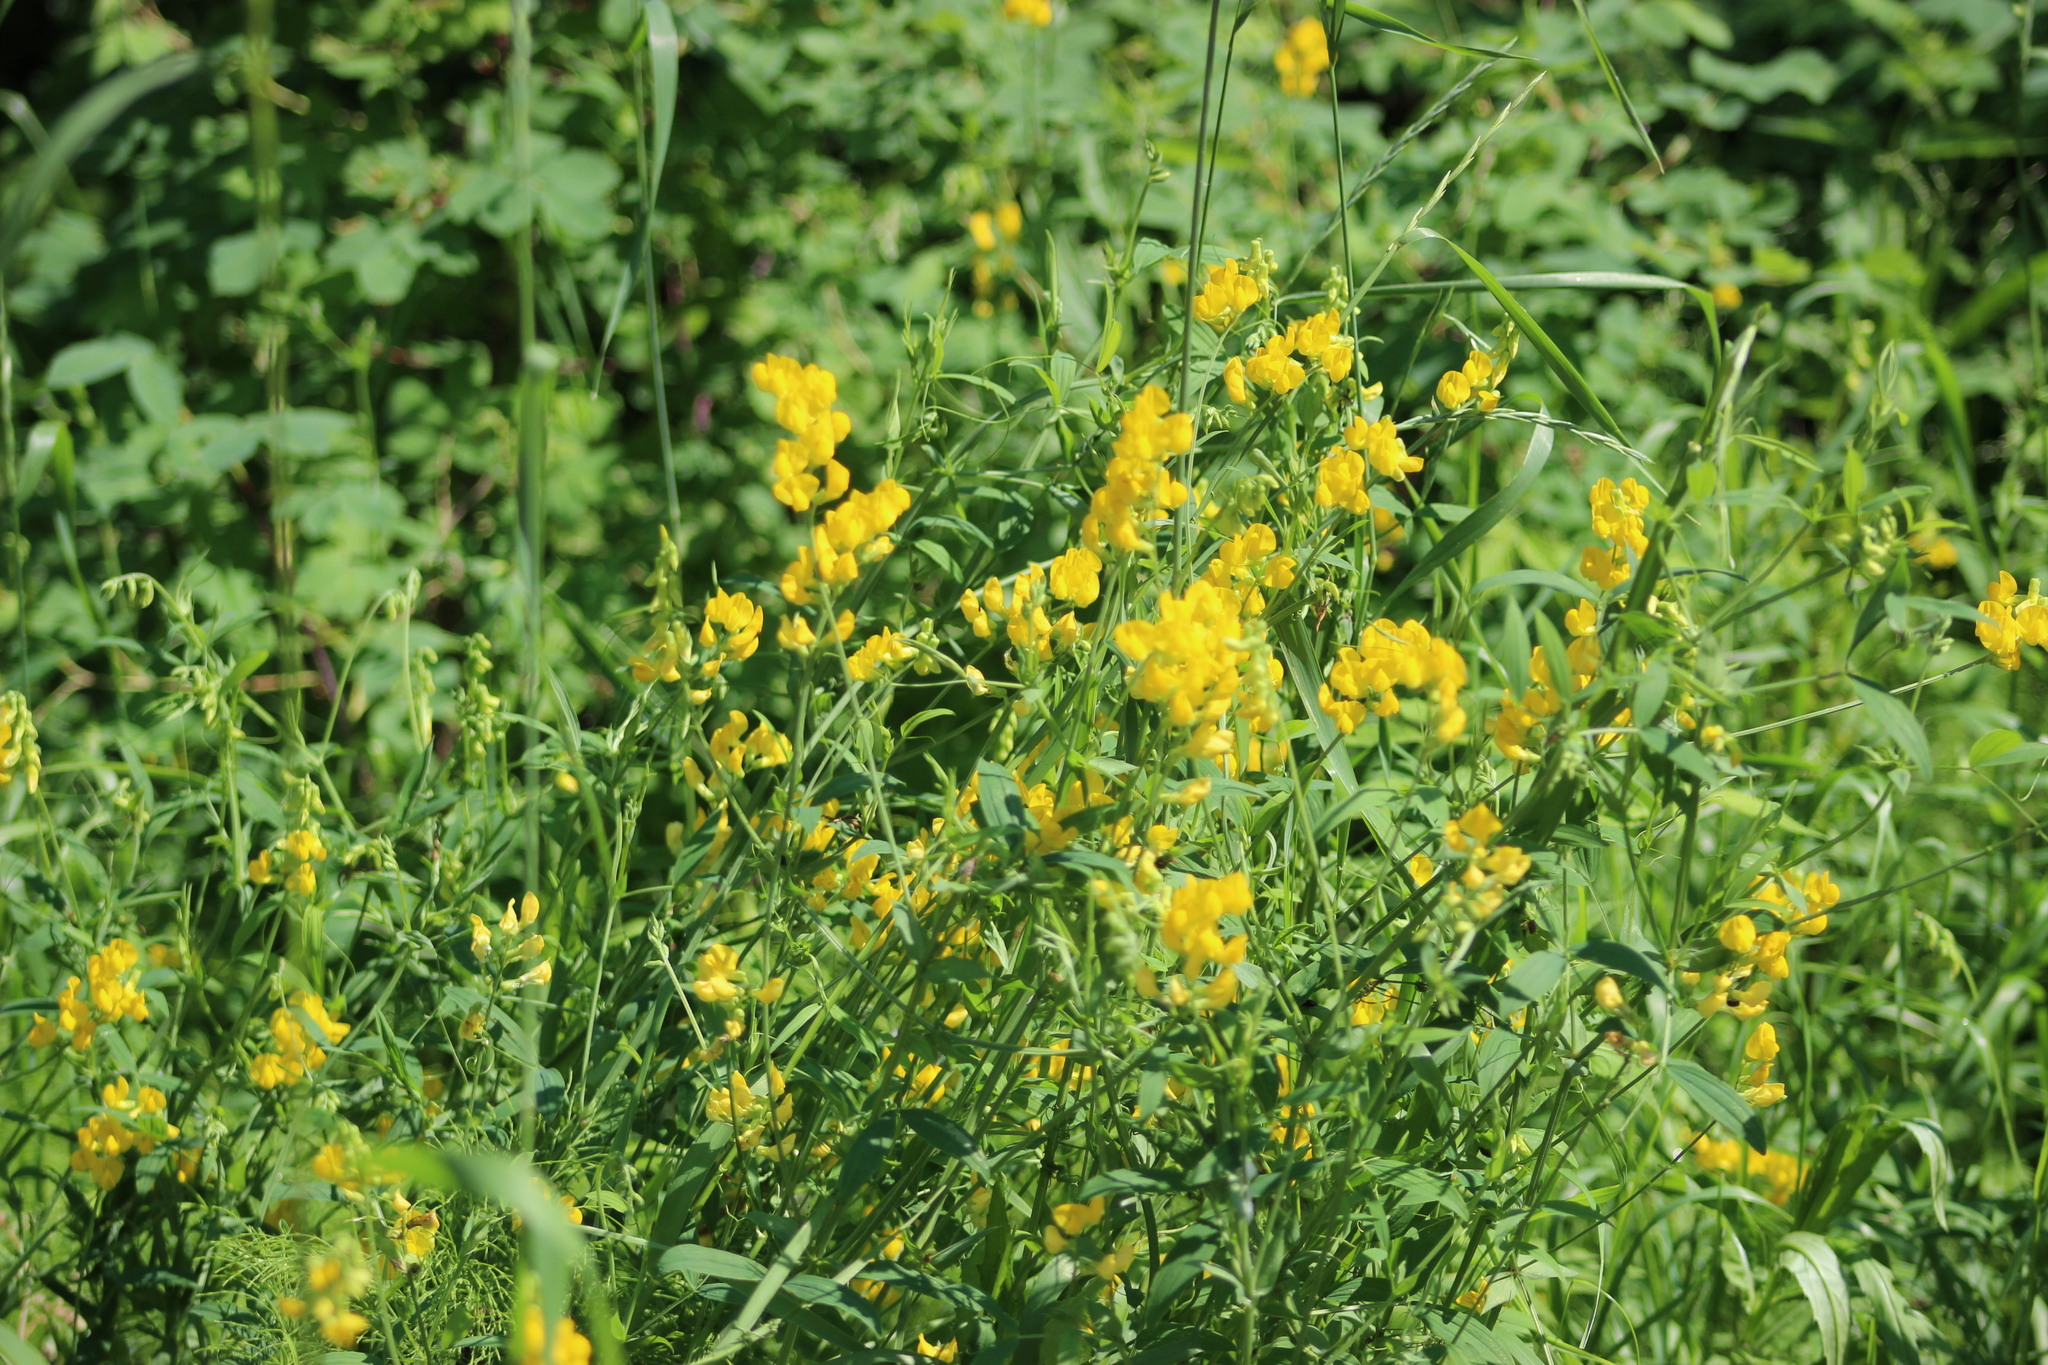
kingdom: Plantae
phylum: Tracheophyta
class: Magnoliopsida
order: Fabales
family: Fabaceae
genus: Lathyrus
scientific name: Lathyrus pratensis
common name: Meadow vetchling
